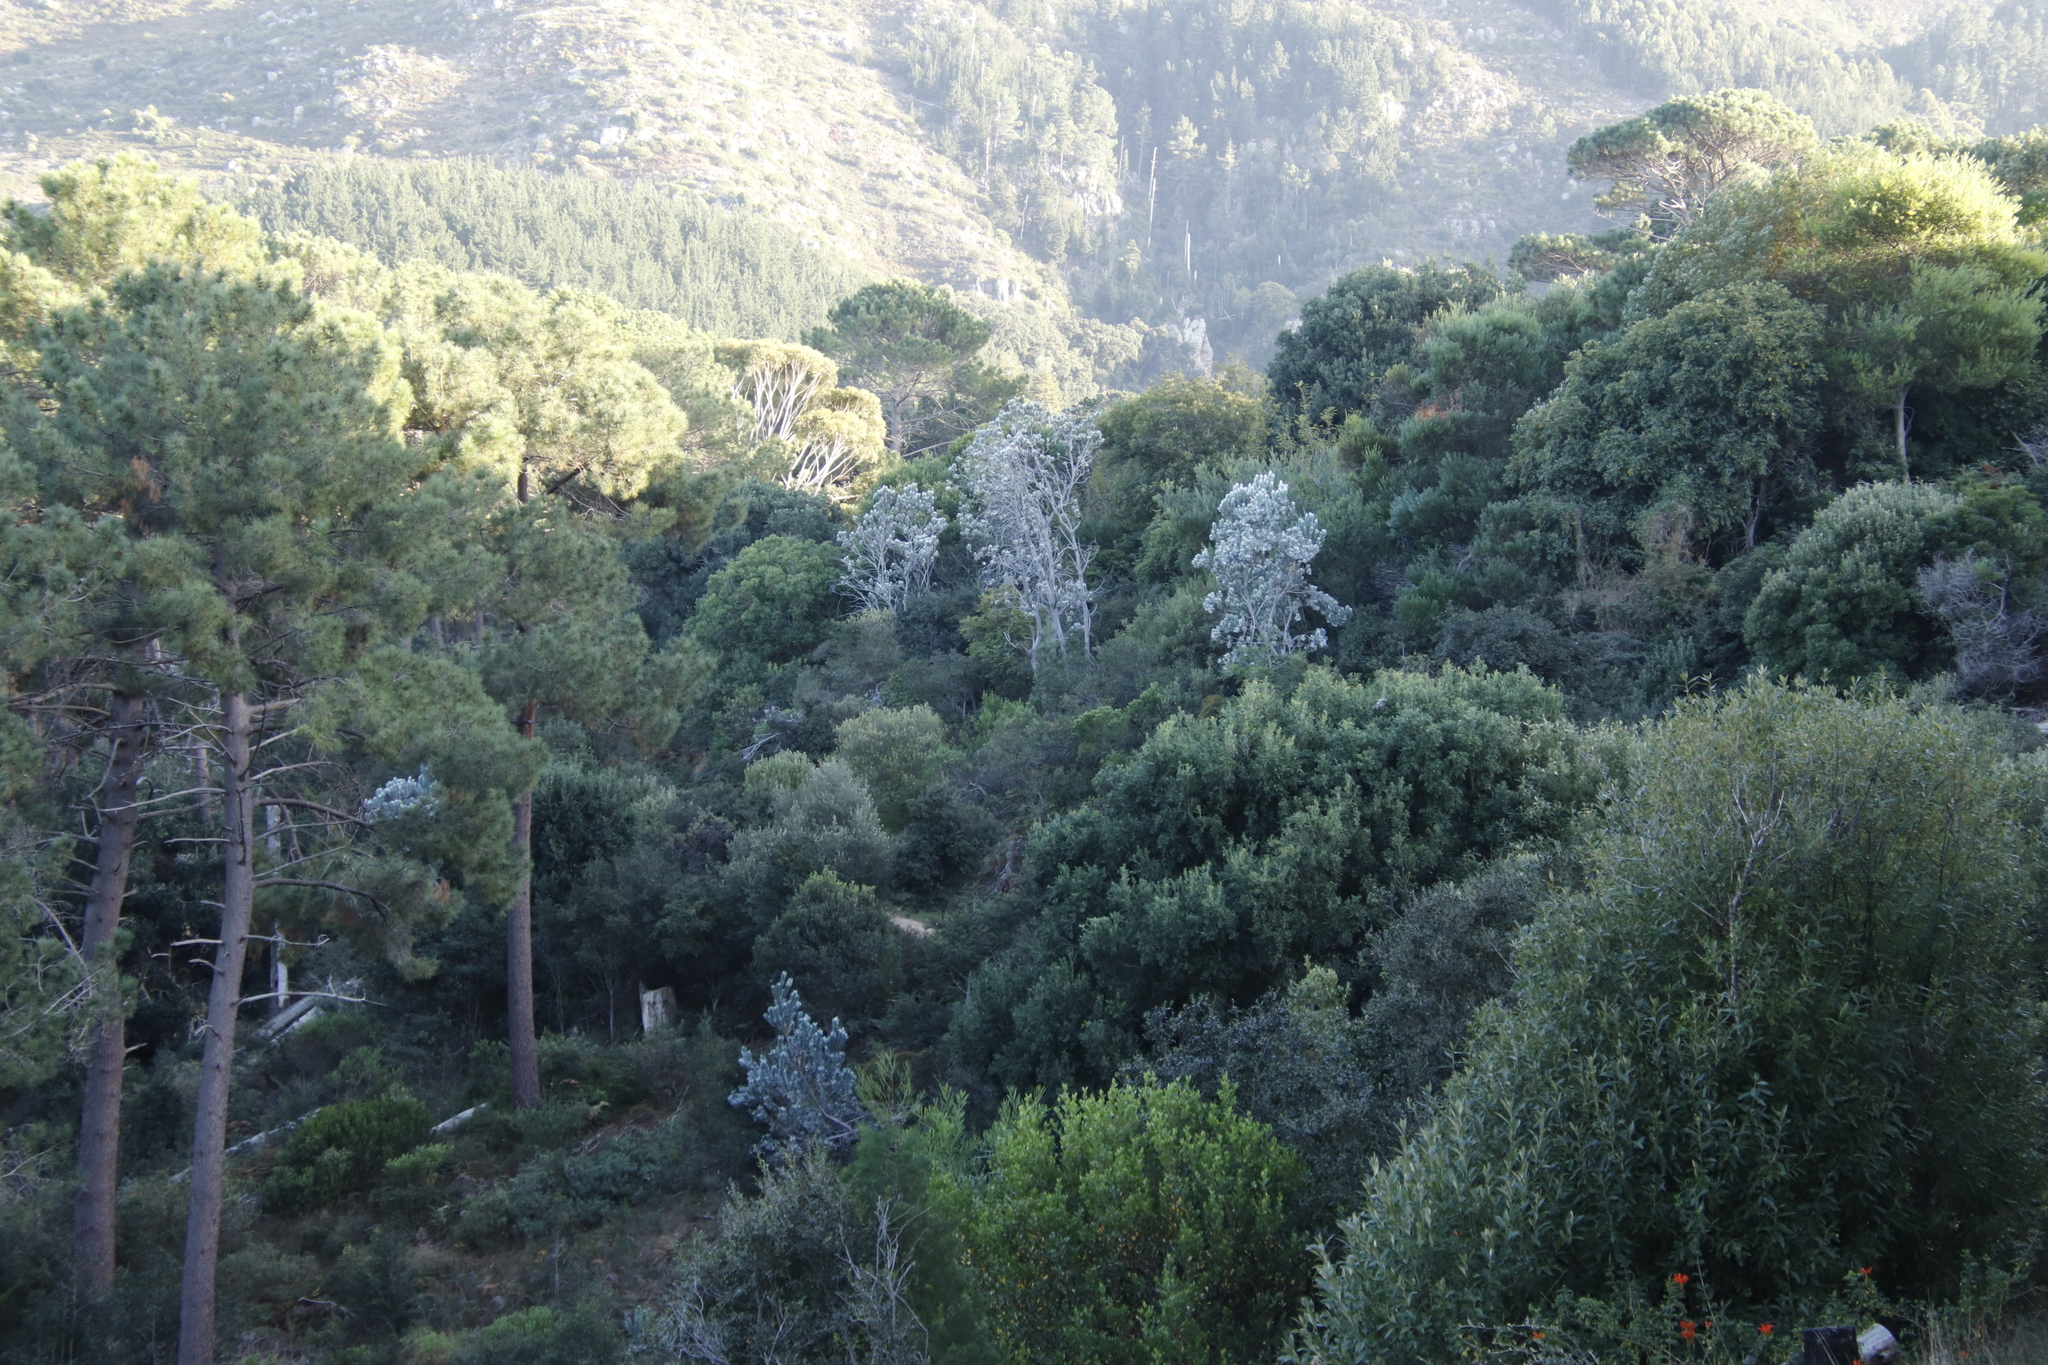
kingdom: Plantae
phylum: Tracheophyta
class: Magnoliopsida
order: Proteales
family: Proteaceae
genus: Leucadendron
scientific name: Leucadendron argenteum
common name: Cape silver tree
